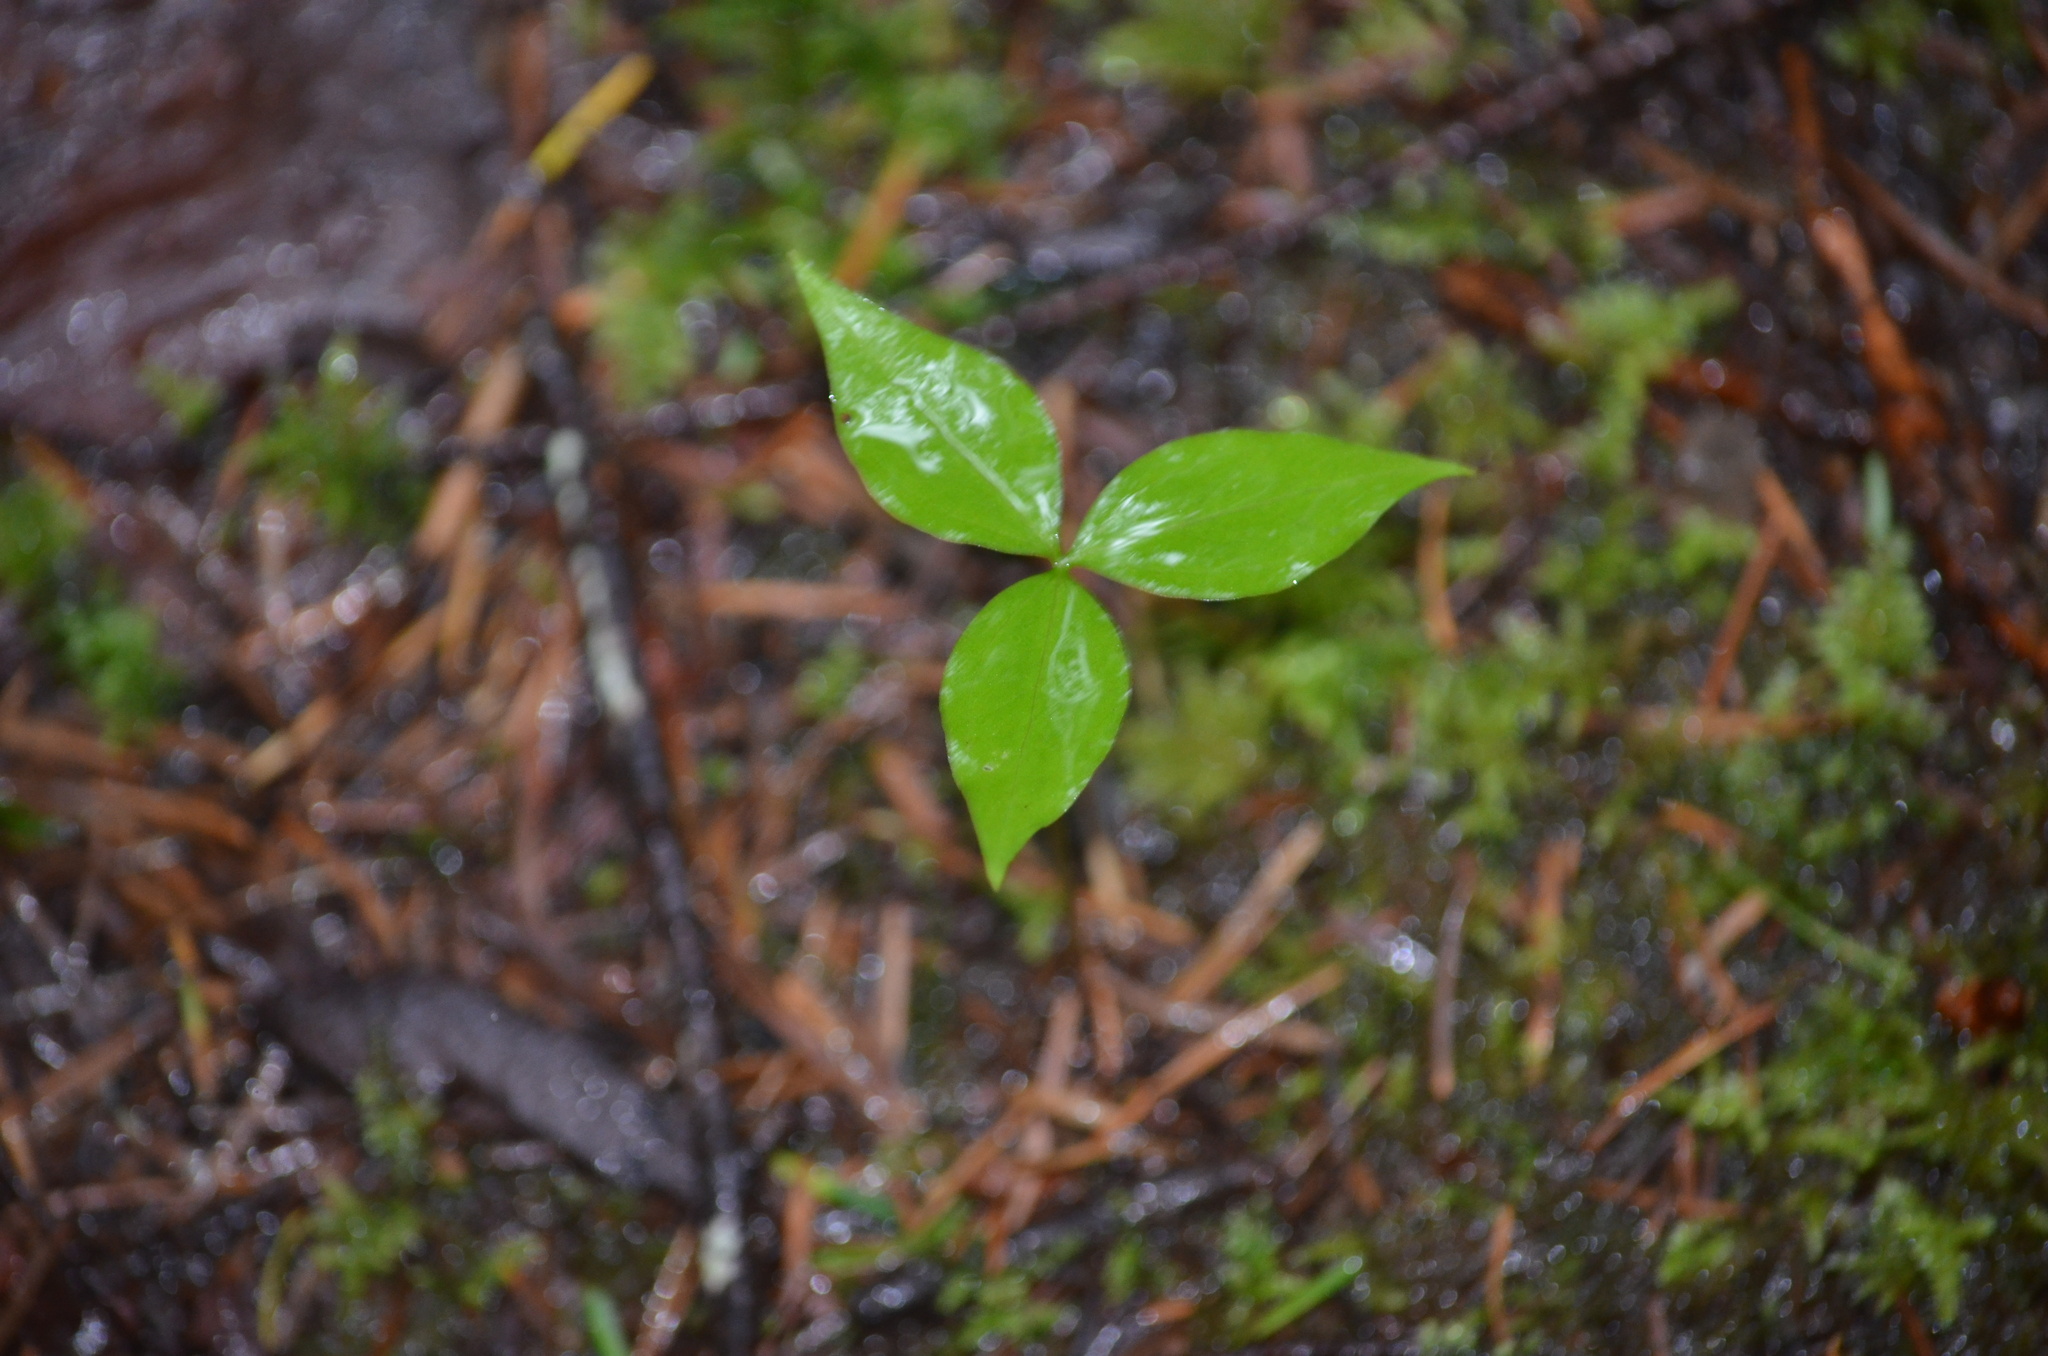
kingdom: Plantae
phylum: Tracheophyta
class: Liliopsida
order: Liliales
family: Melanthiaceae
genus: Trillium
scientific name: Trillium ovatum
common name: Pacific trillium
